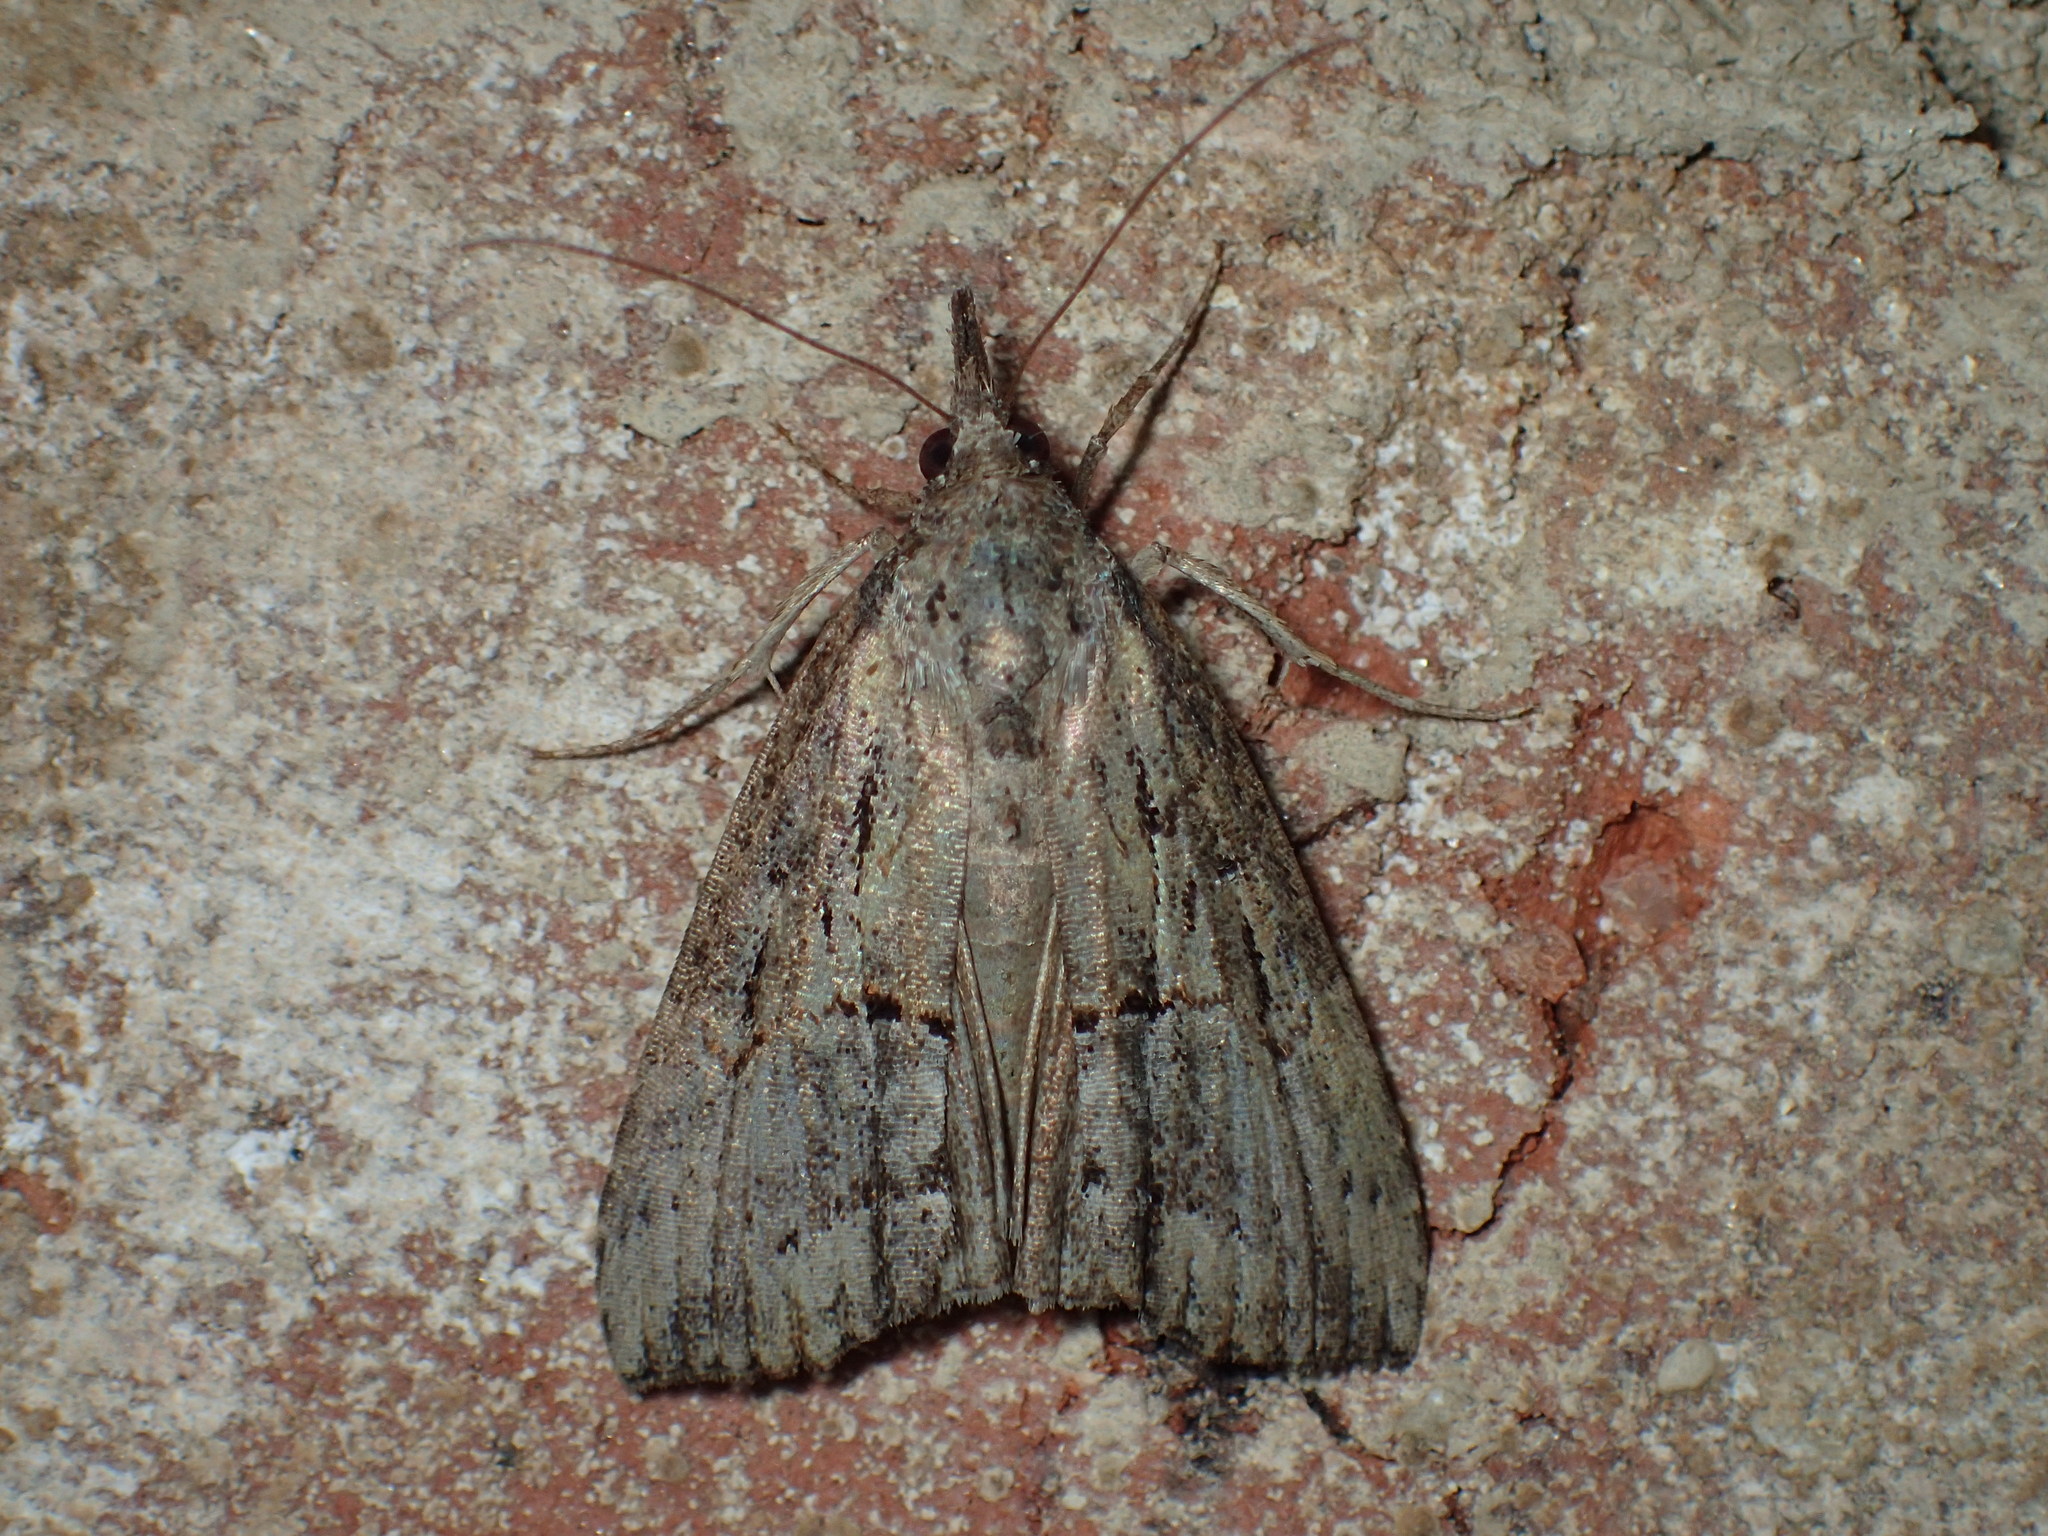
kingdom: Animalia
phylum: Arthropoda
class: Insecta
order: Lepidoptera
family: Erebidae
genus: Hypena
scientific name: Hypena scabra
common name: Green cloverworm
